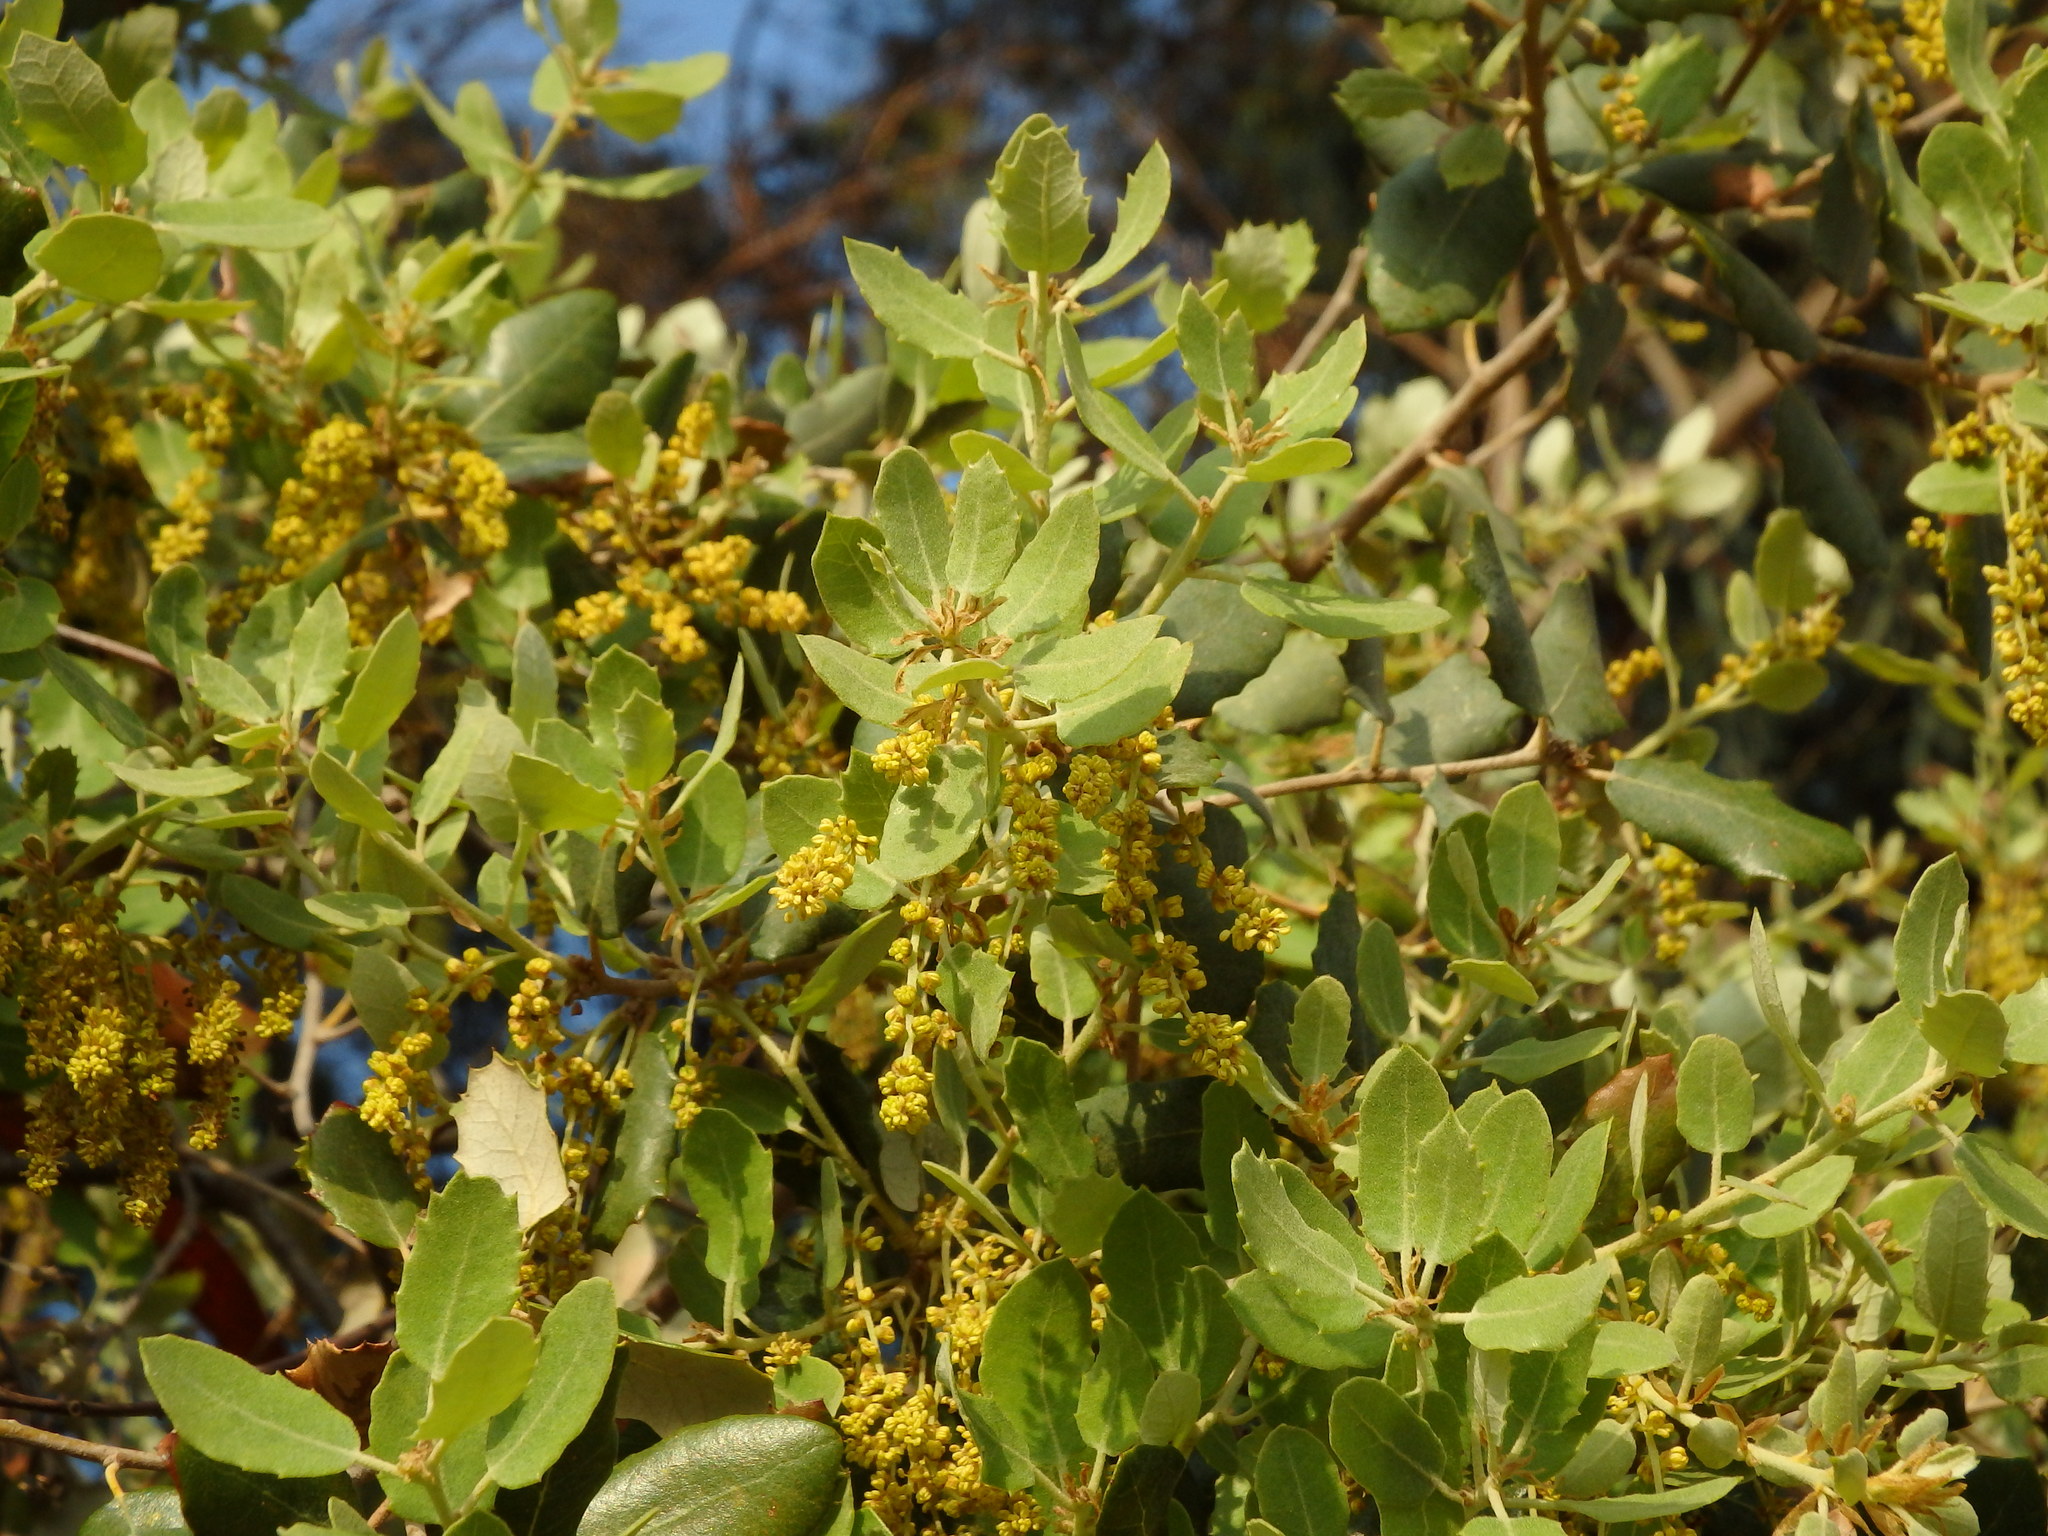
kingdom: Plantae
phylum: Tracheophyta
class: Magnoliopsida
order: Fagales
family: Fagaceae
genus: Quercus
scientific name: Quercus rotundifolia
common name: Holm oak
